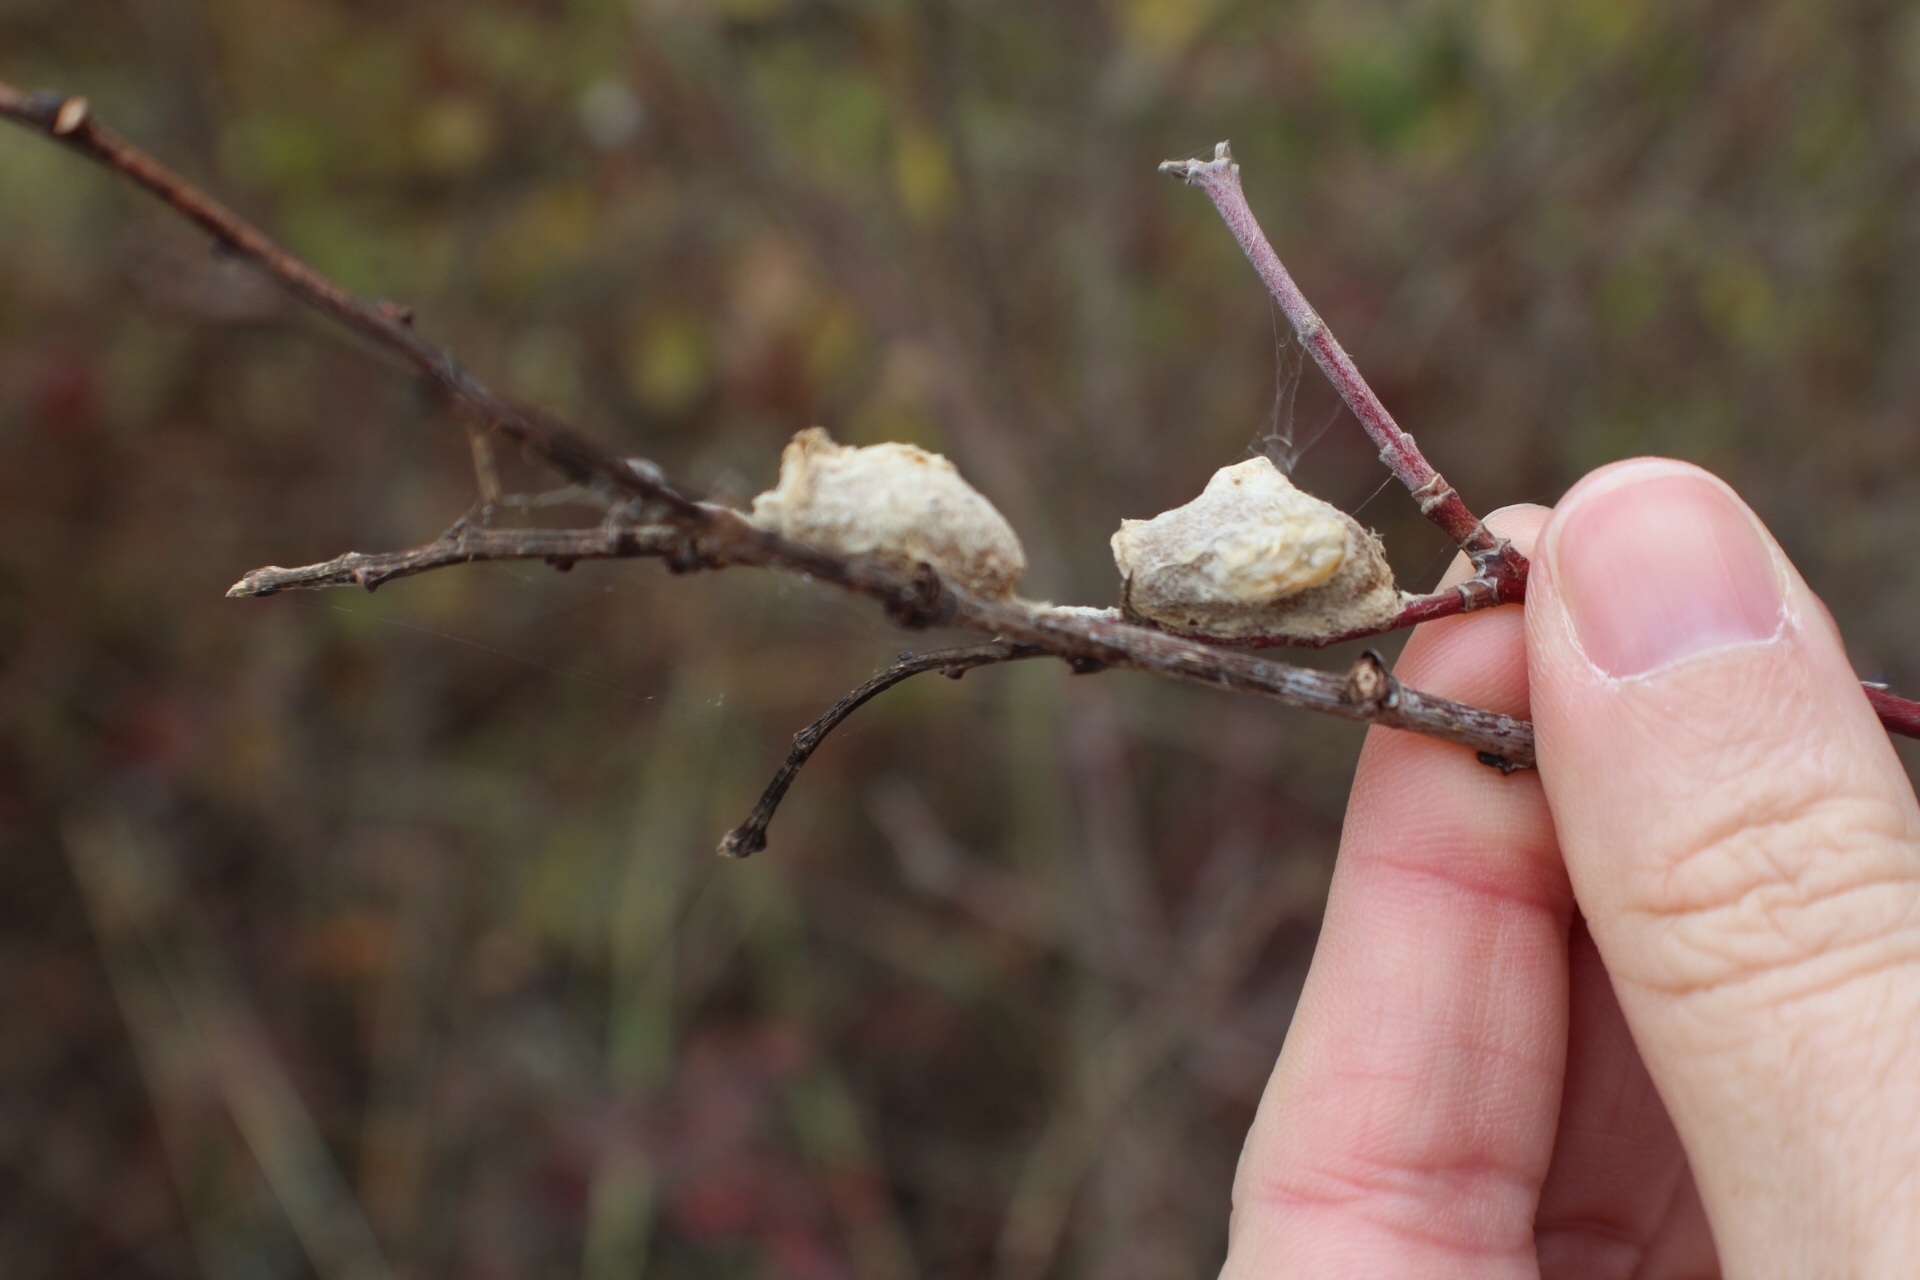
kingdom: Animalia
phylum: Arthropoda
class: Insecta
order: Lepidoptera
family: Megalopygidae
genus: Megalopyge
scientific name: Megalopyge opercularis
